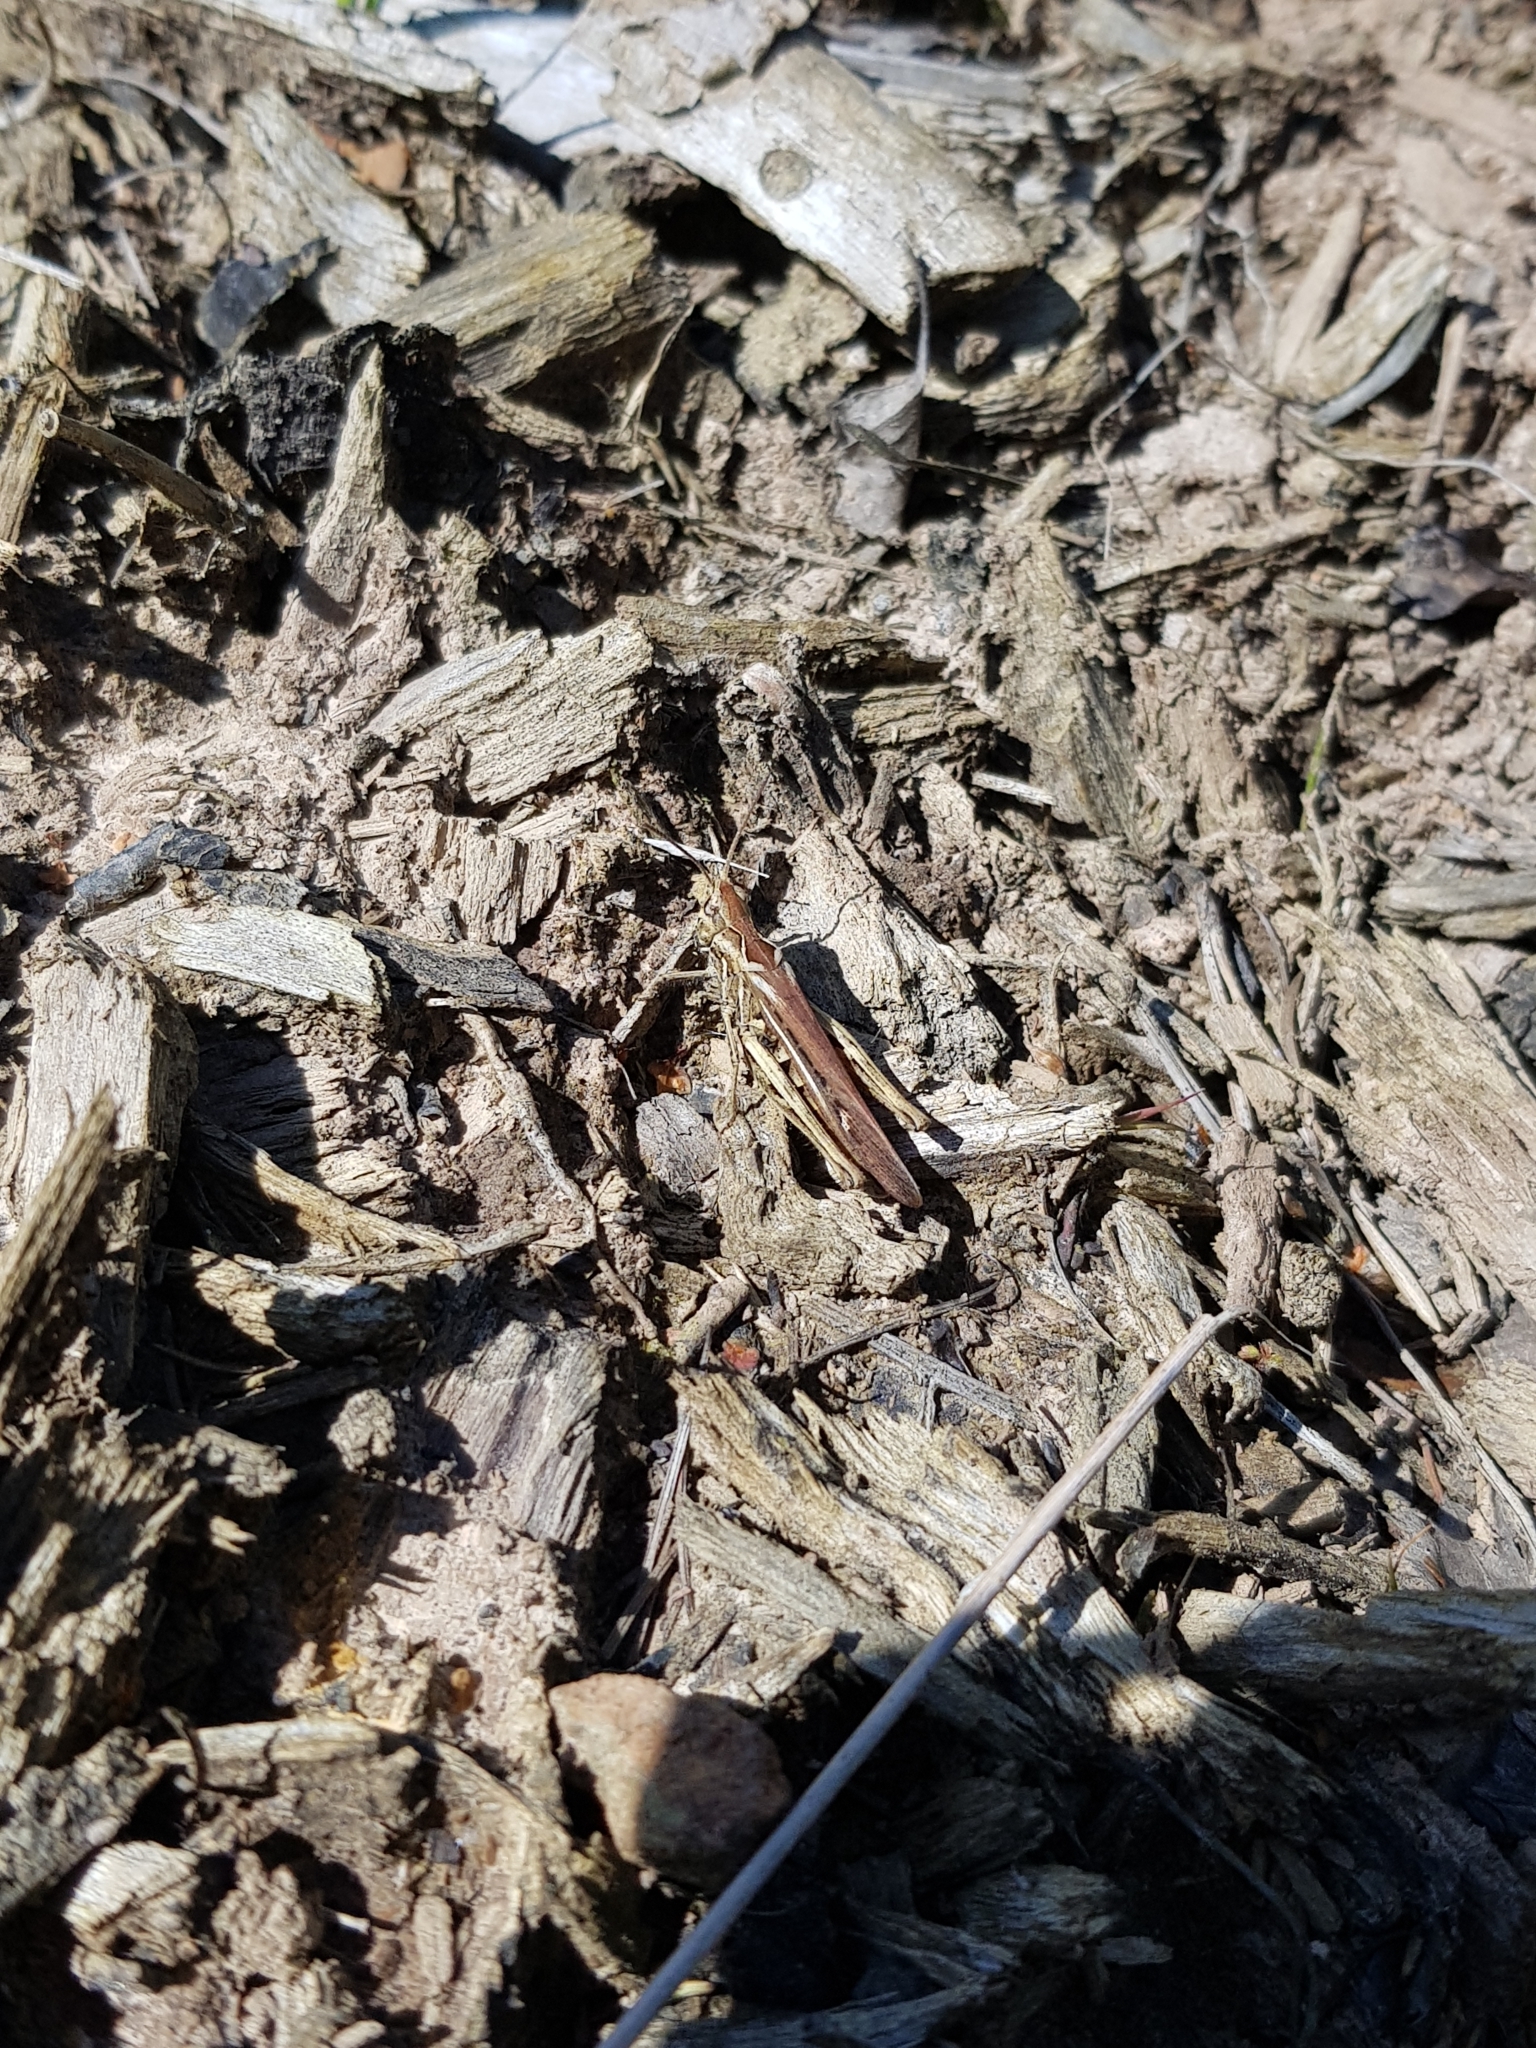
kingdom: Animalia
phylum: Arthropoda
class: Insecta
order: Orthoptera
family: Acrididae
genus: Chorthippus
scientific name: Chorthippus brunneus
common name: Field grasshopper
